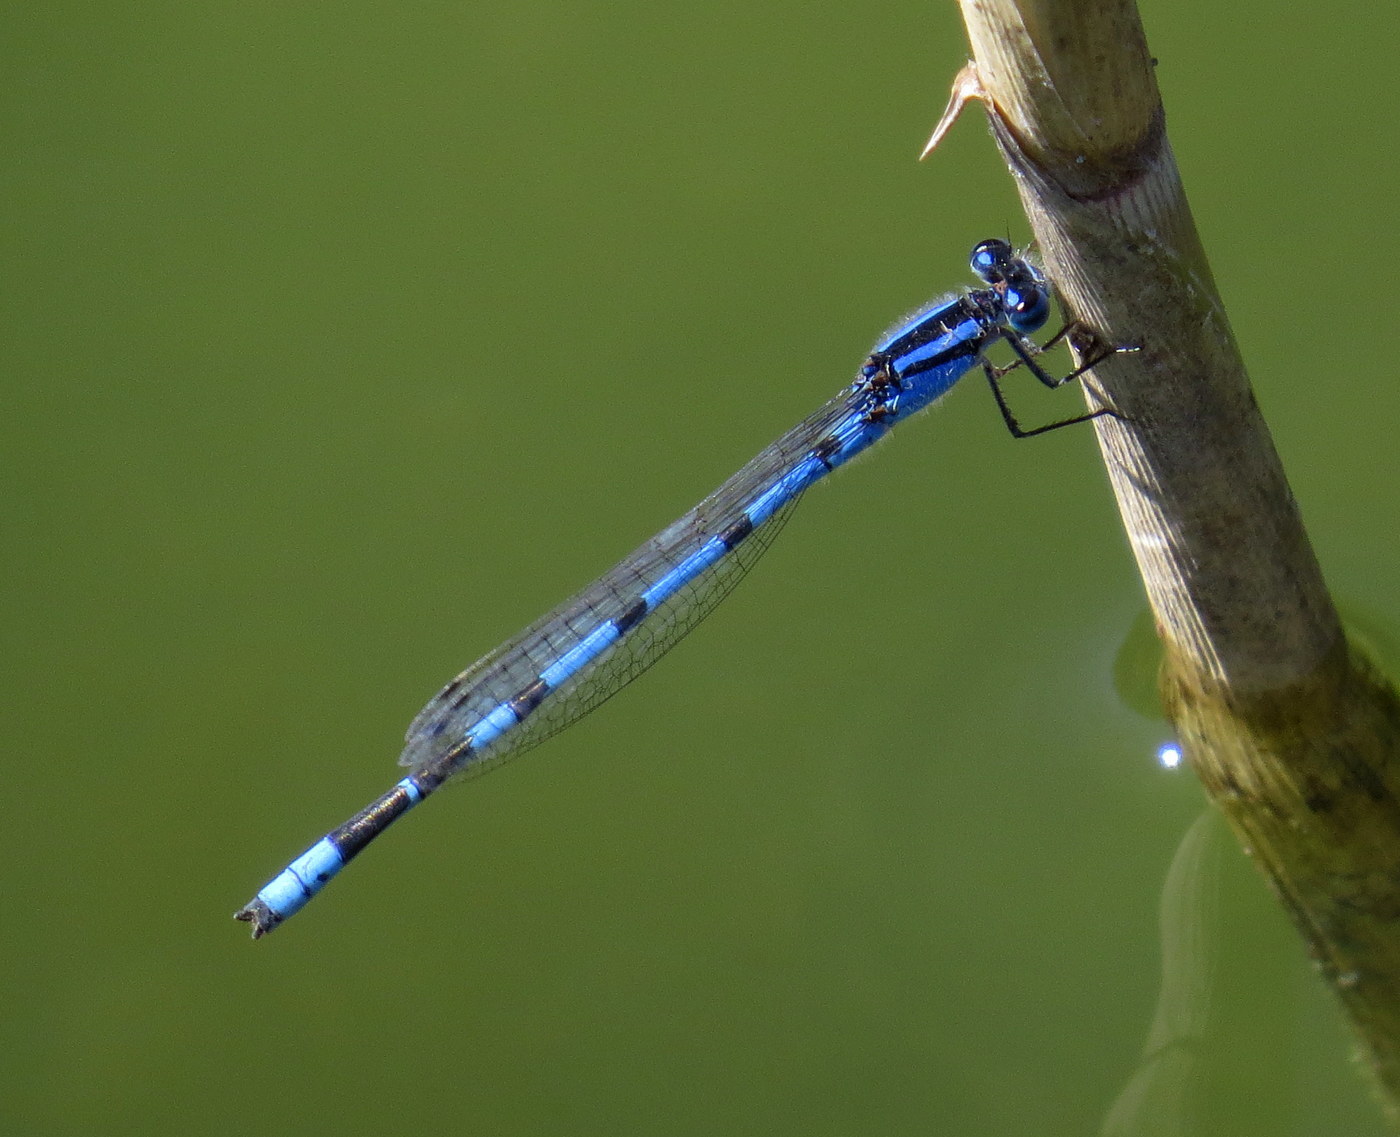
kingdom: Animalia
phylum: Arthropoda
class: Insecta
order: Odonata
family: Coenagrionidae
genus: Enallagma
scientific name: Enallagma civile
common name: Damselfly
